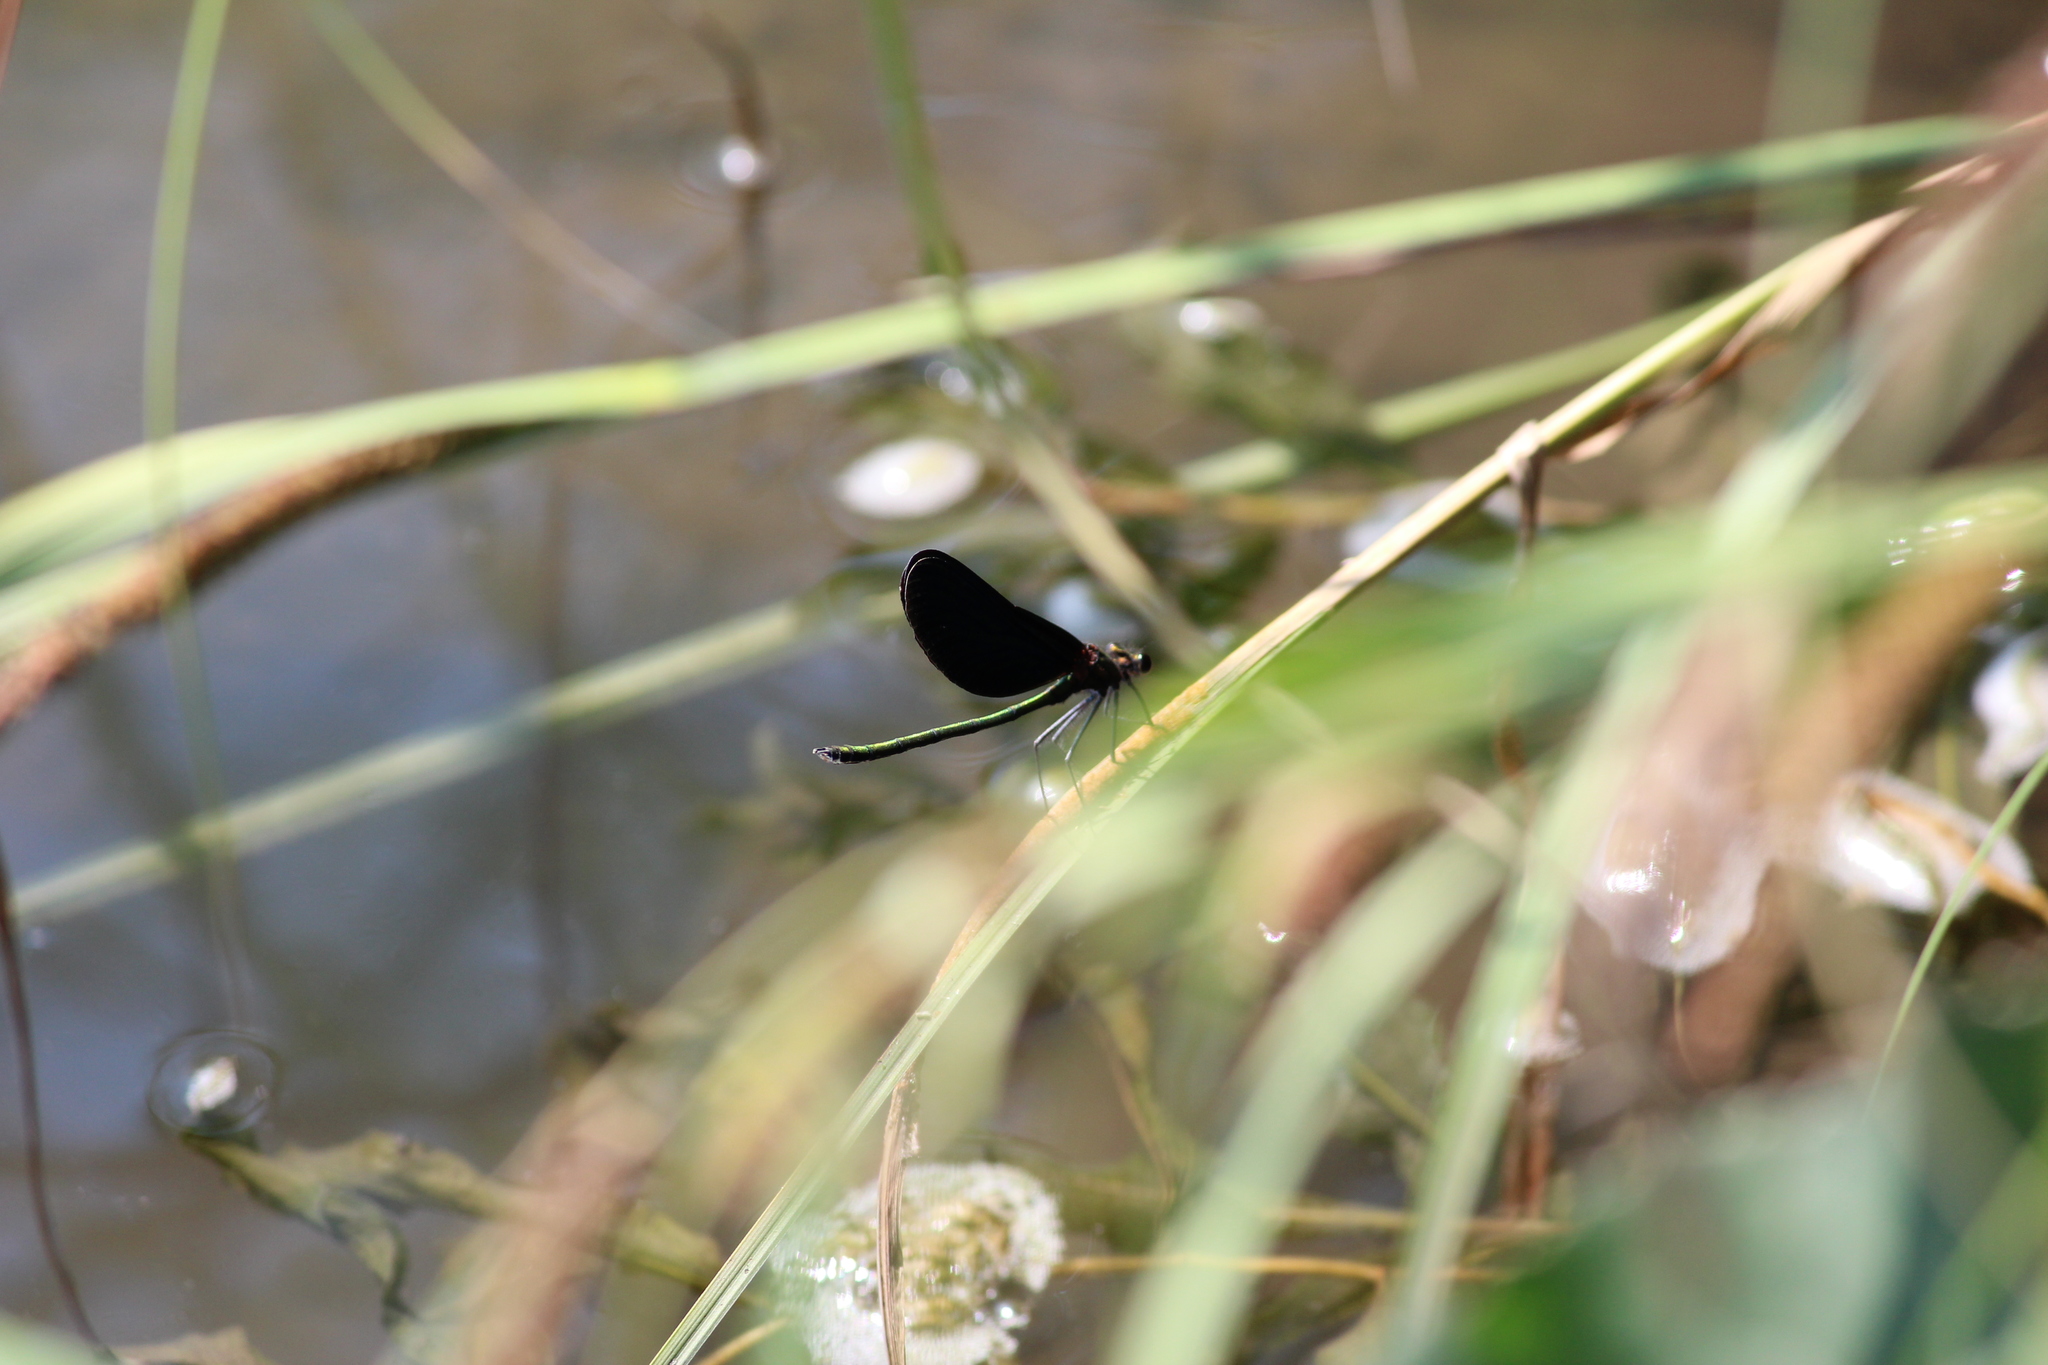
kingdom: Animalia
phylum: Arthropoda
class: Insecta
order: Odonata
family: Calopterygidae
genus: Calopteryx
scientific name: Calopteryx japonica
